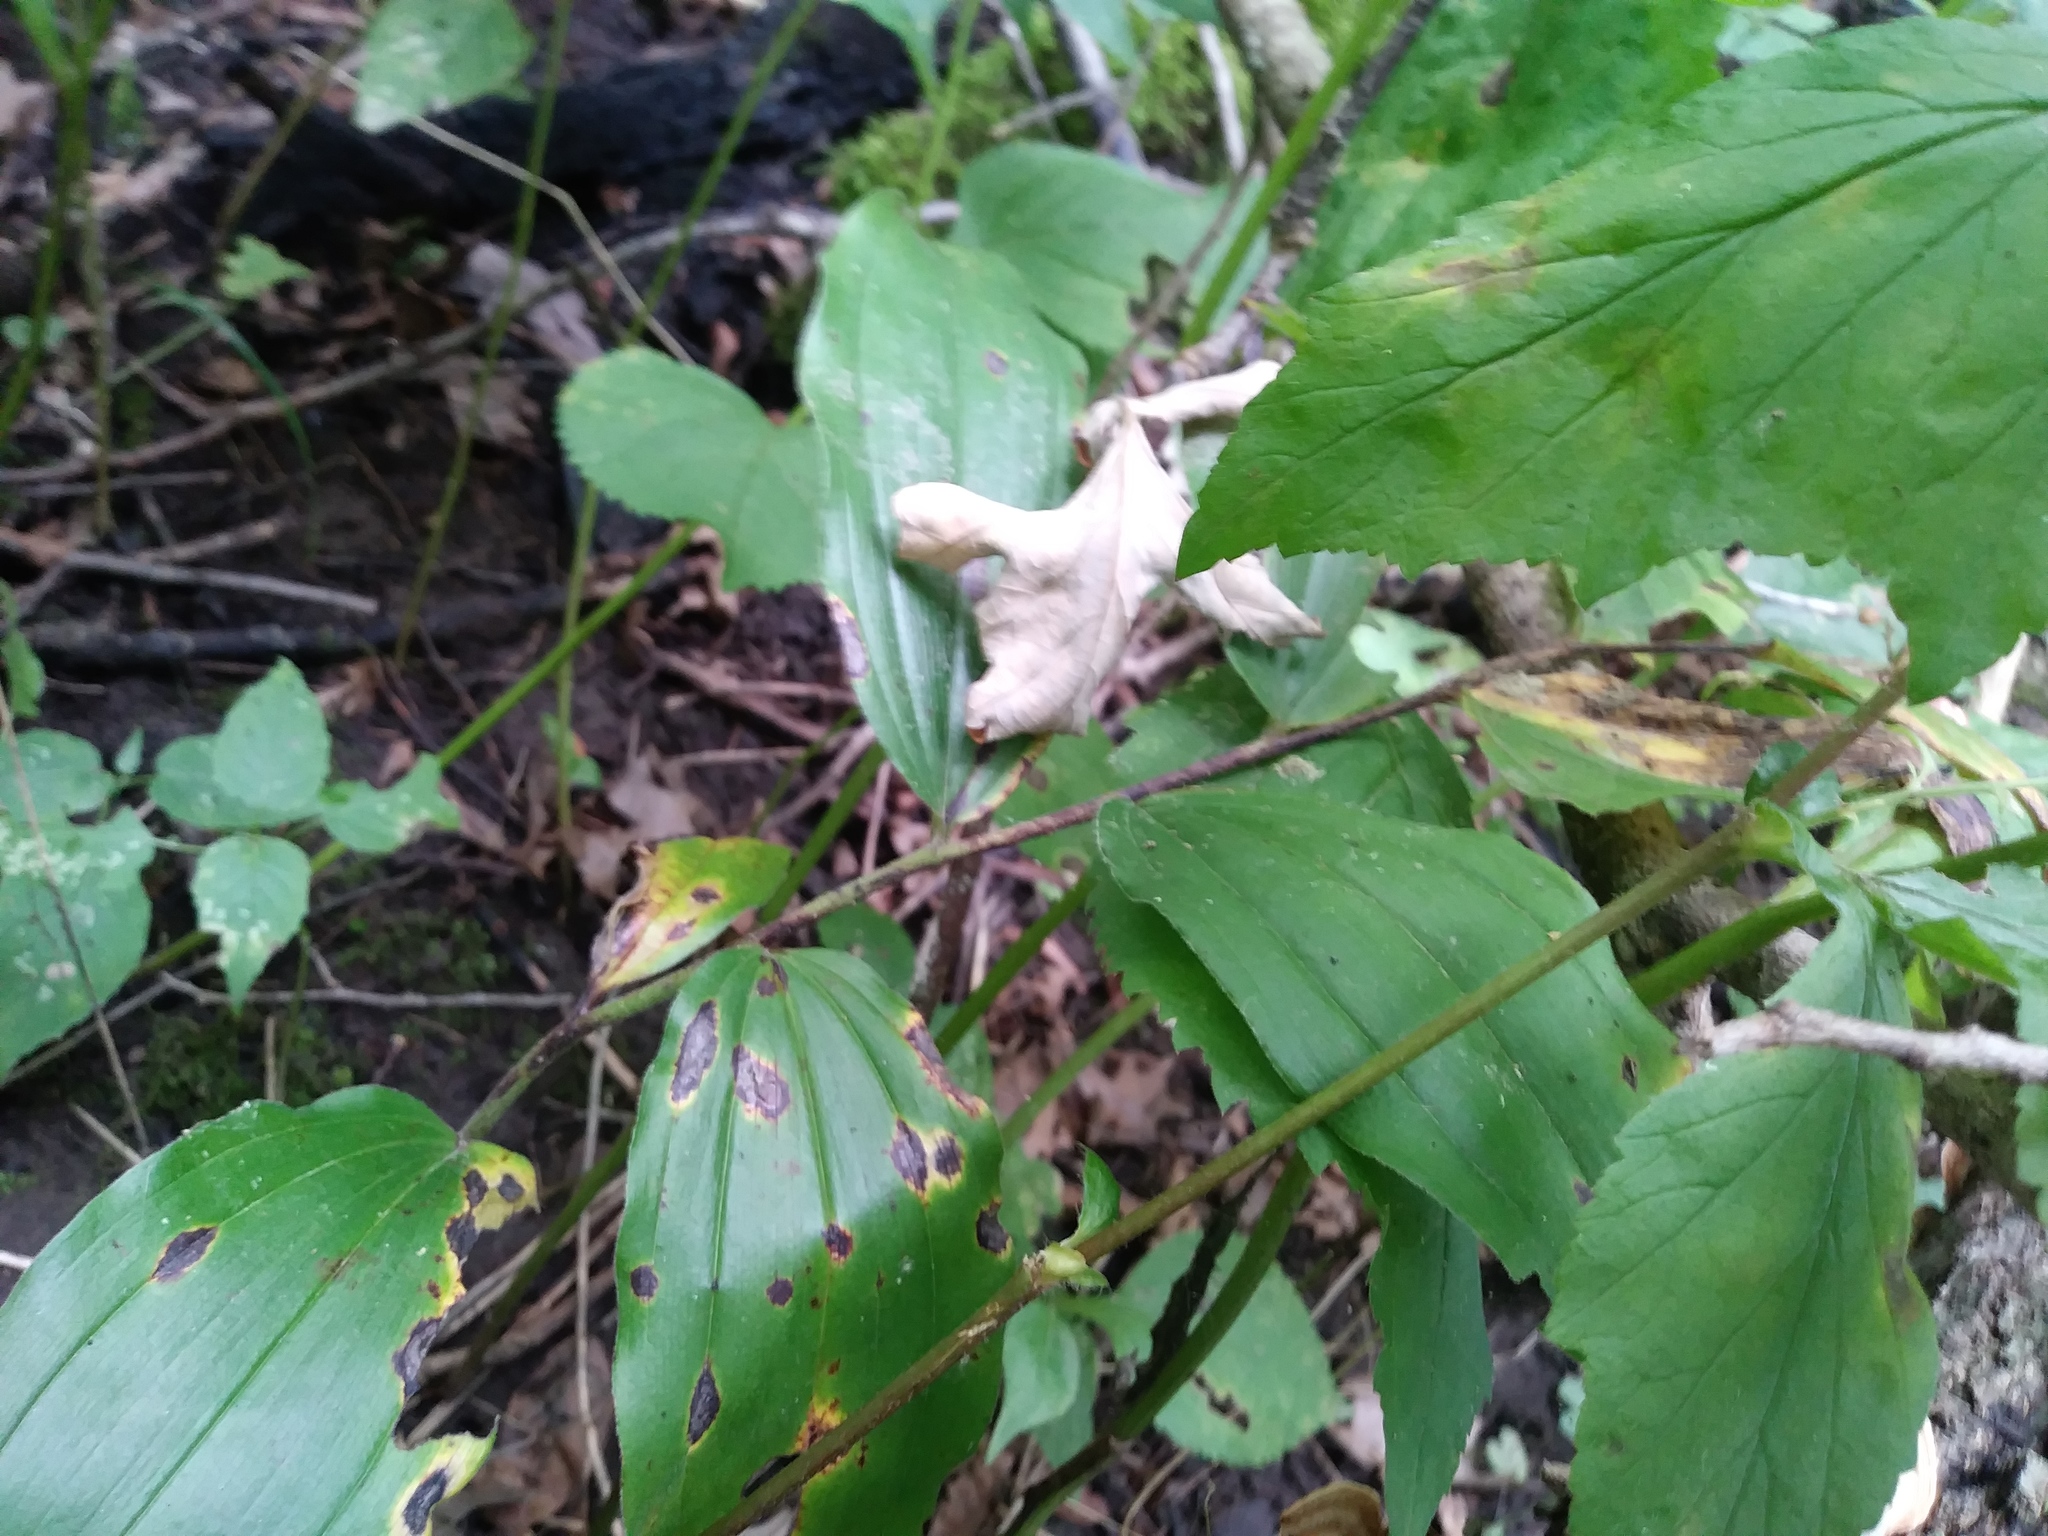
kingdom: Plantae
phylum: Tracheophyta
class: Liliopsida
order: Asparagales
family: Asparagaceae
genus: Maianthemum
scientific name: Maianthemum racemosum
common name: False spikenard
